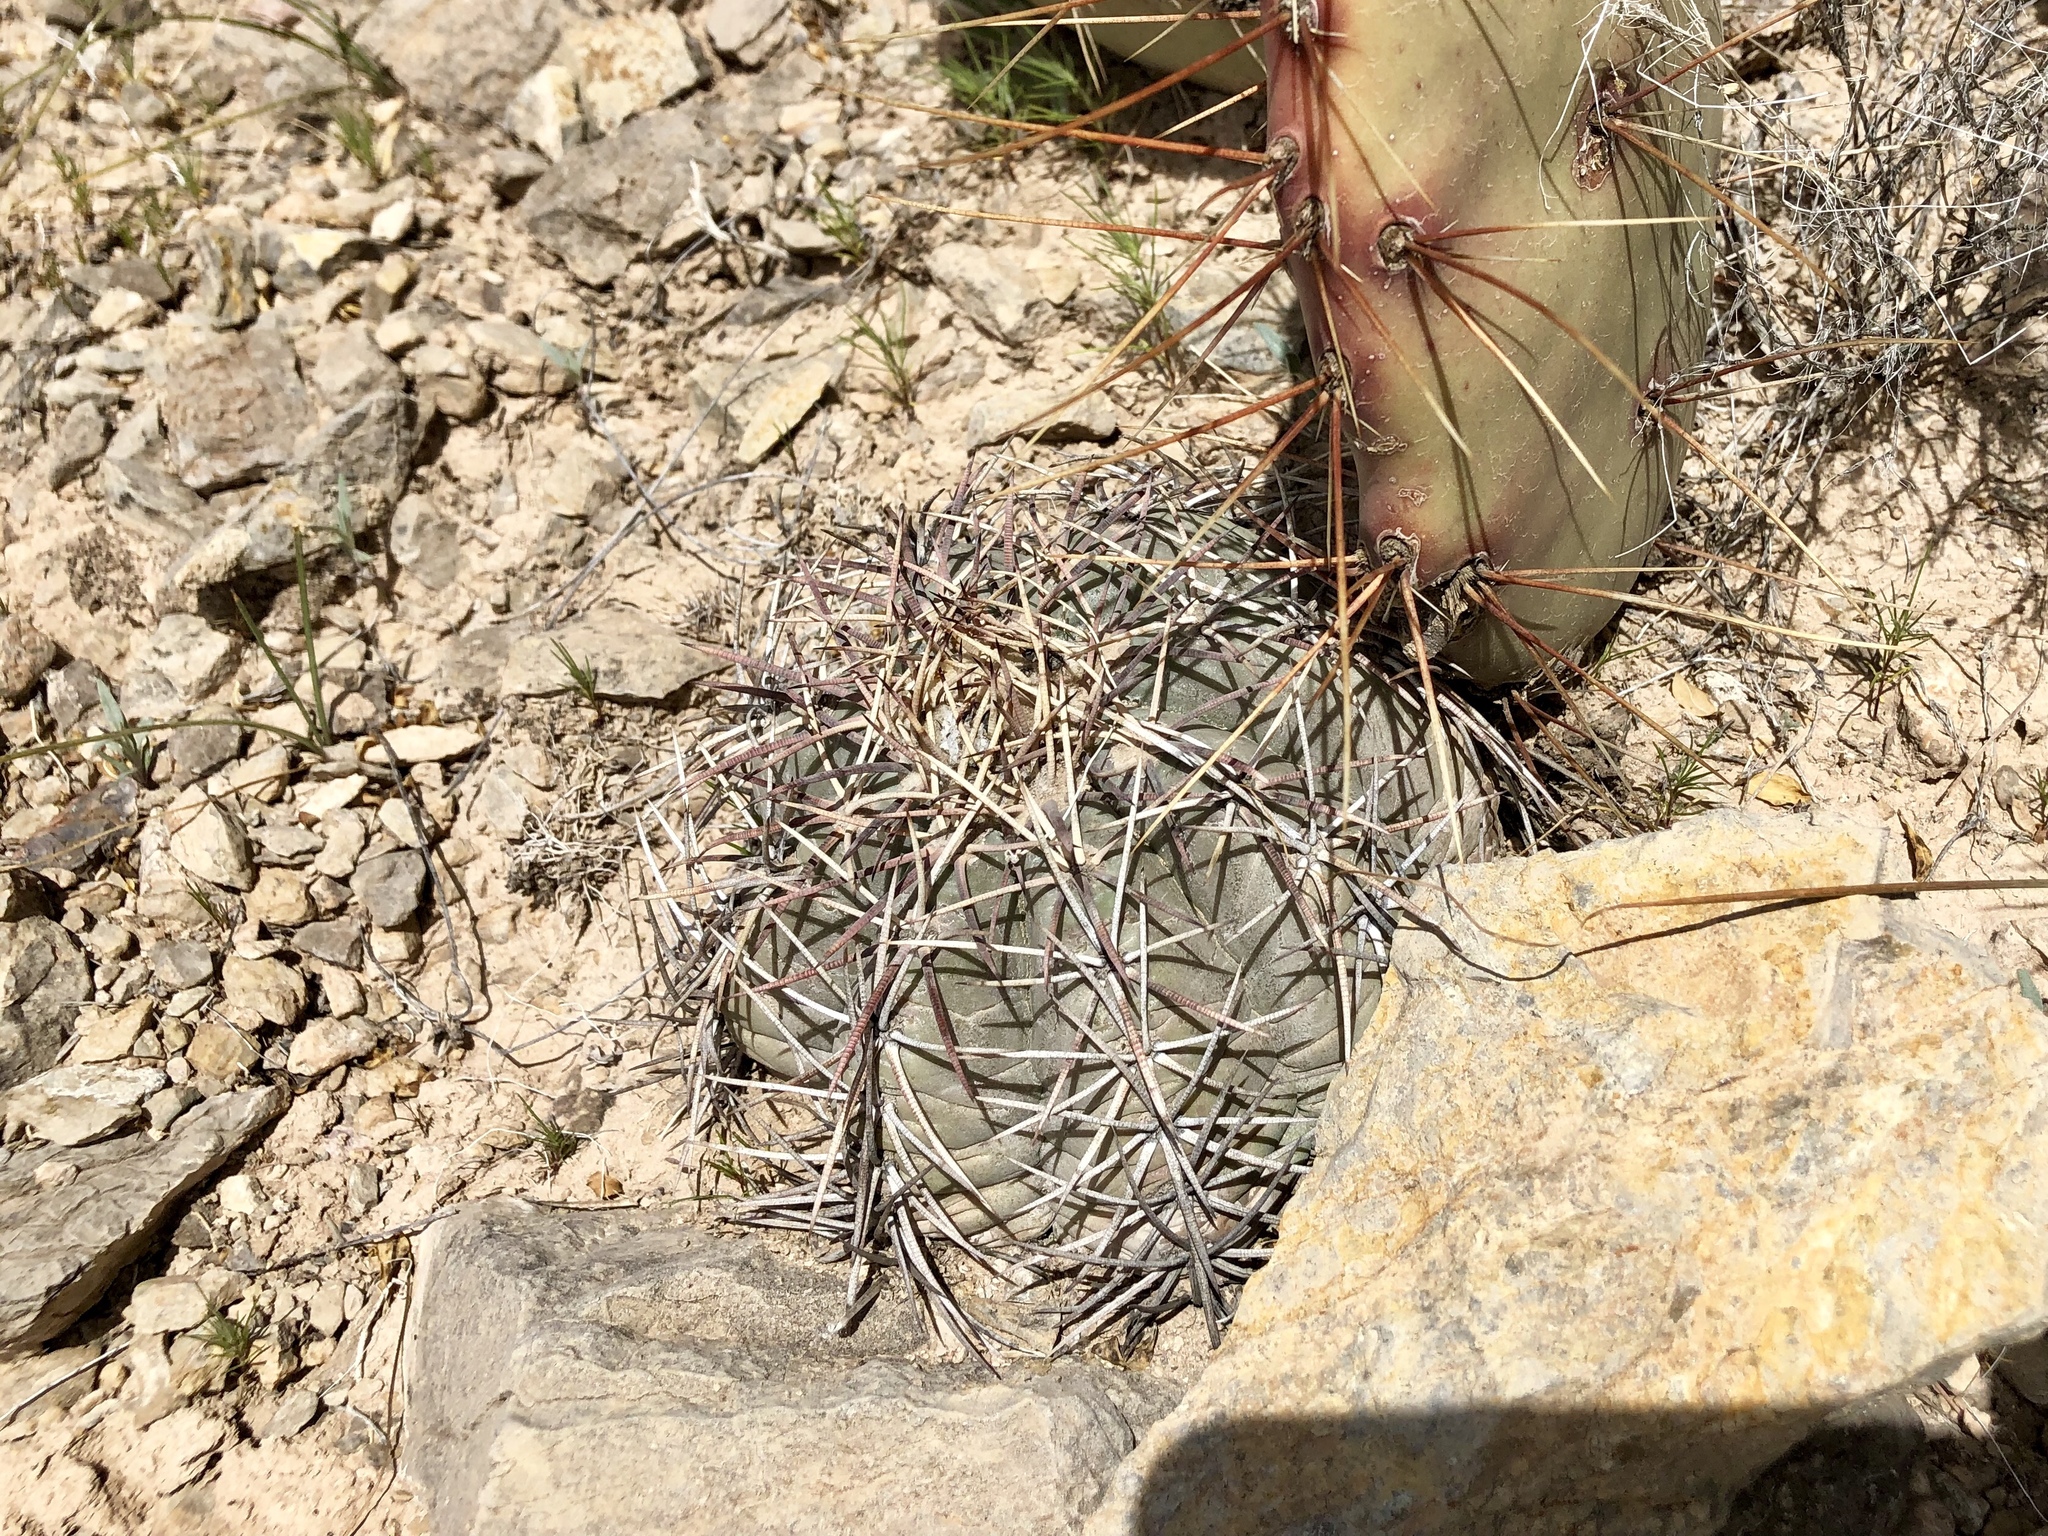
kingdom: Plantae
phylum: Tracheophyta
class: Magnoliopsida
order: Caryophyllales
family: Cactaceae
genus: Echinocactus
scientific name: Echinocactus horizonthalonius
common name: Devilshead
